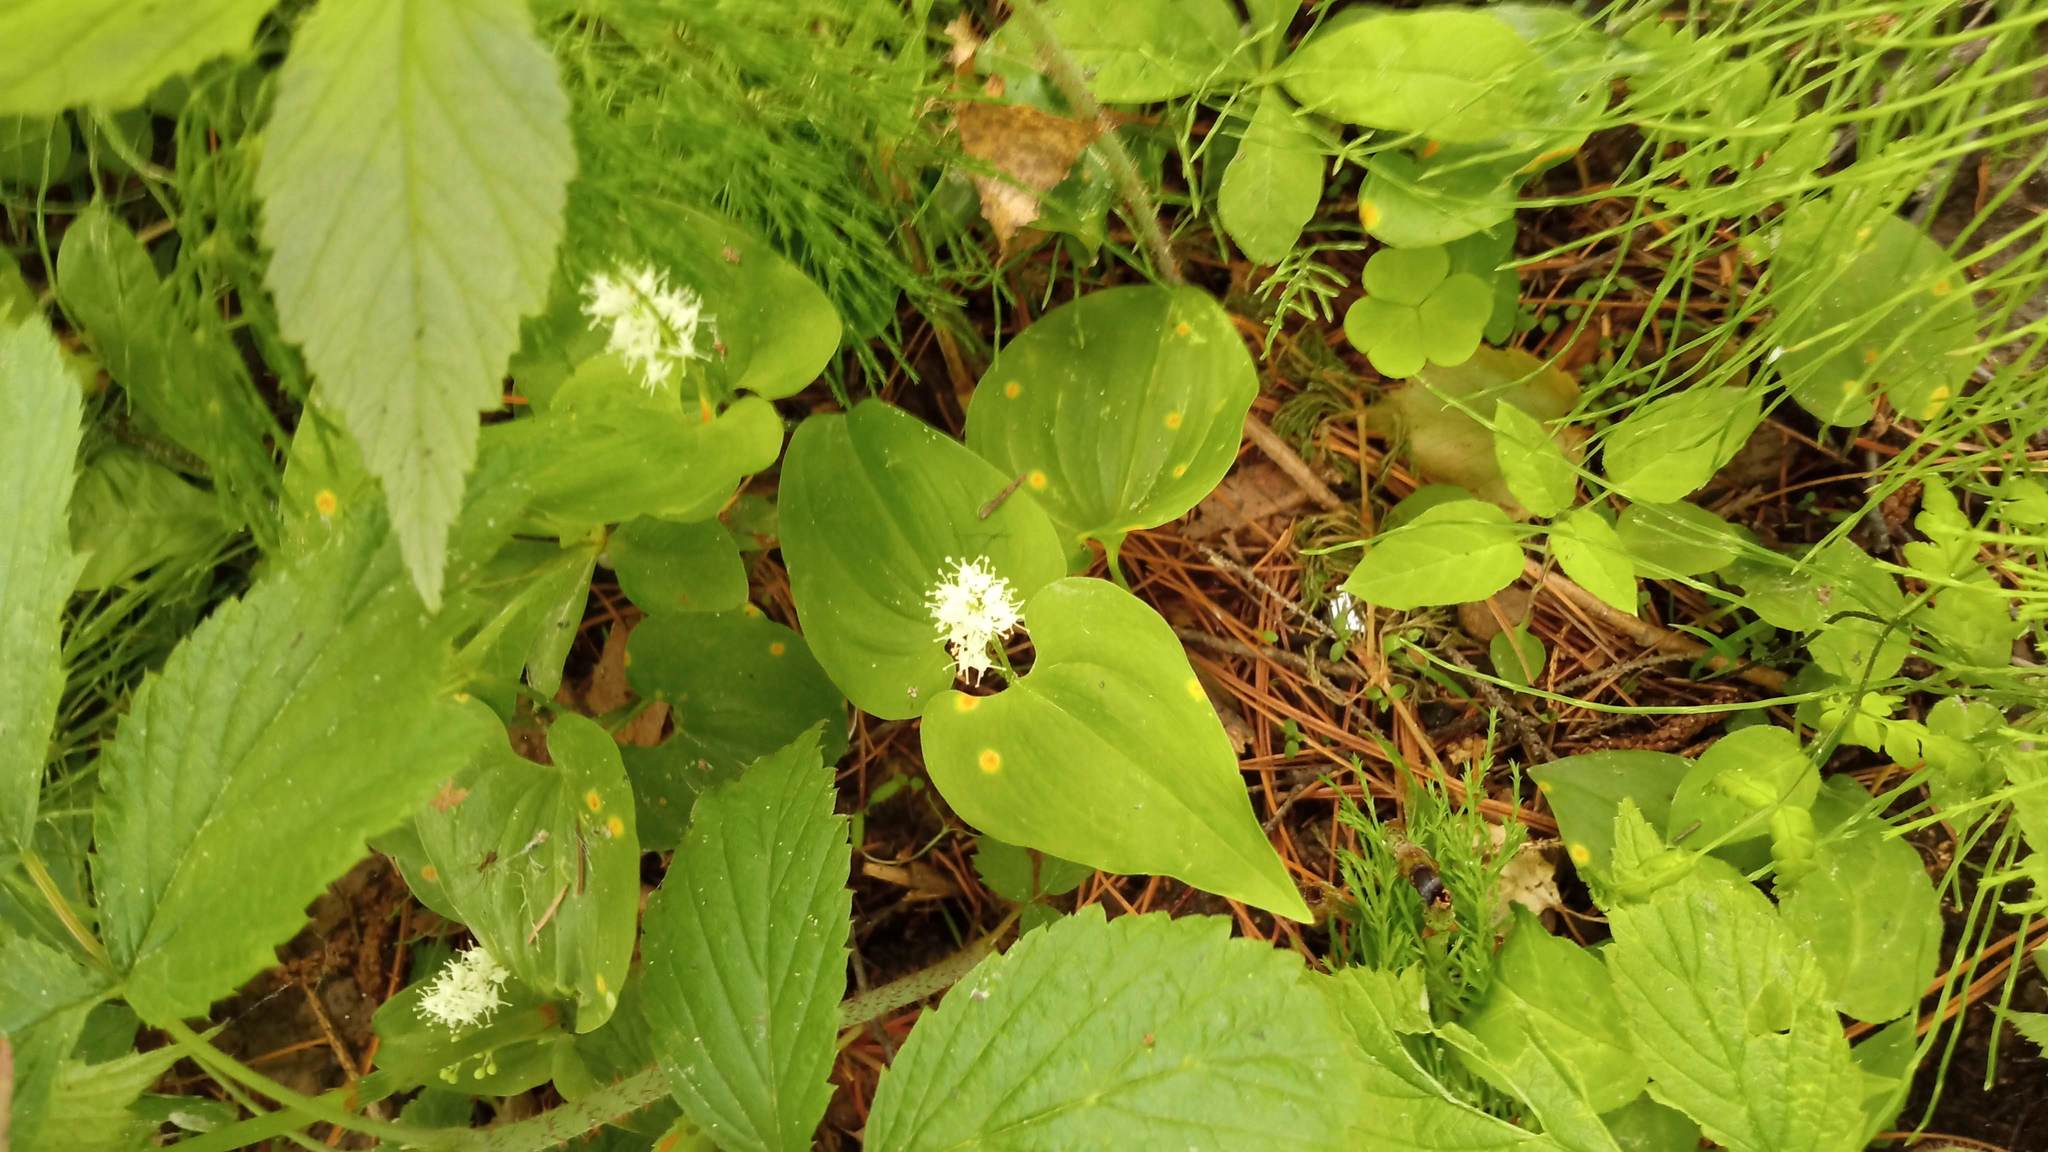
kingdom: Plantae
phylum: Tracheophyta
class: Liliopsida
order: Asparagales
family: Asparagaceae
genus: Maianthemum
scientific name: Maianthemum bifolium
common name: May lily
